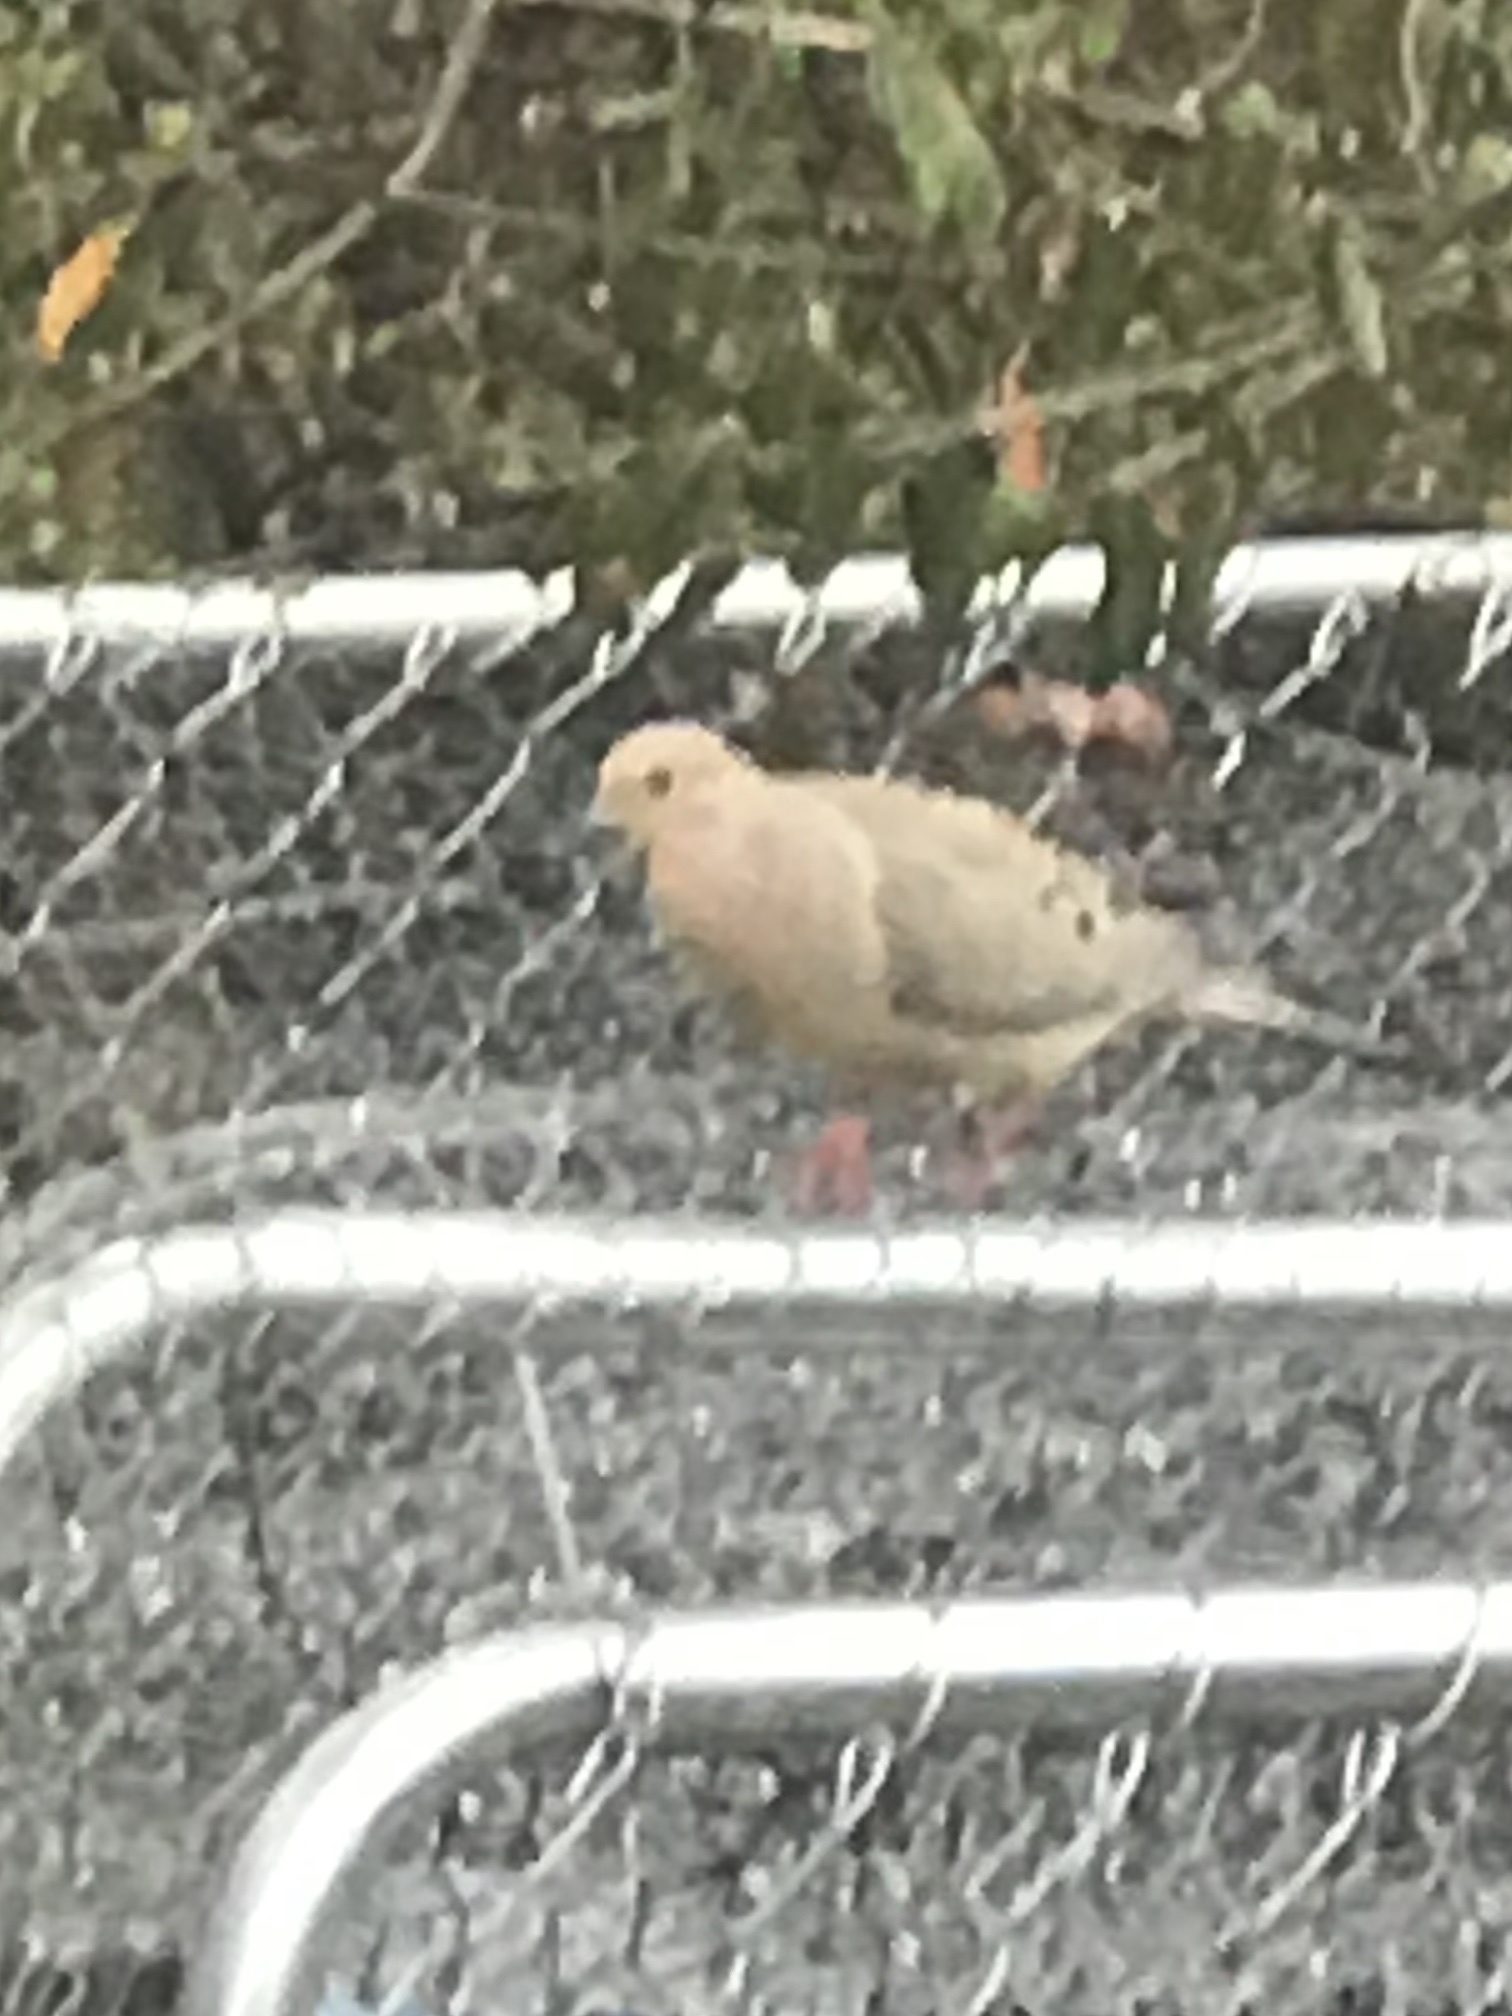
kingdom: Animalia
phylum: Chordata
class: Aves
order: Columbiformes
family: Columbidae
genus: Zenaida
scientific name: Zenaida macroura
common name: Mourning dove
